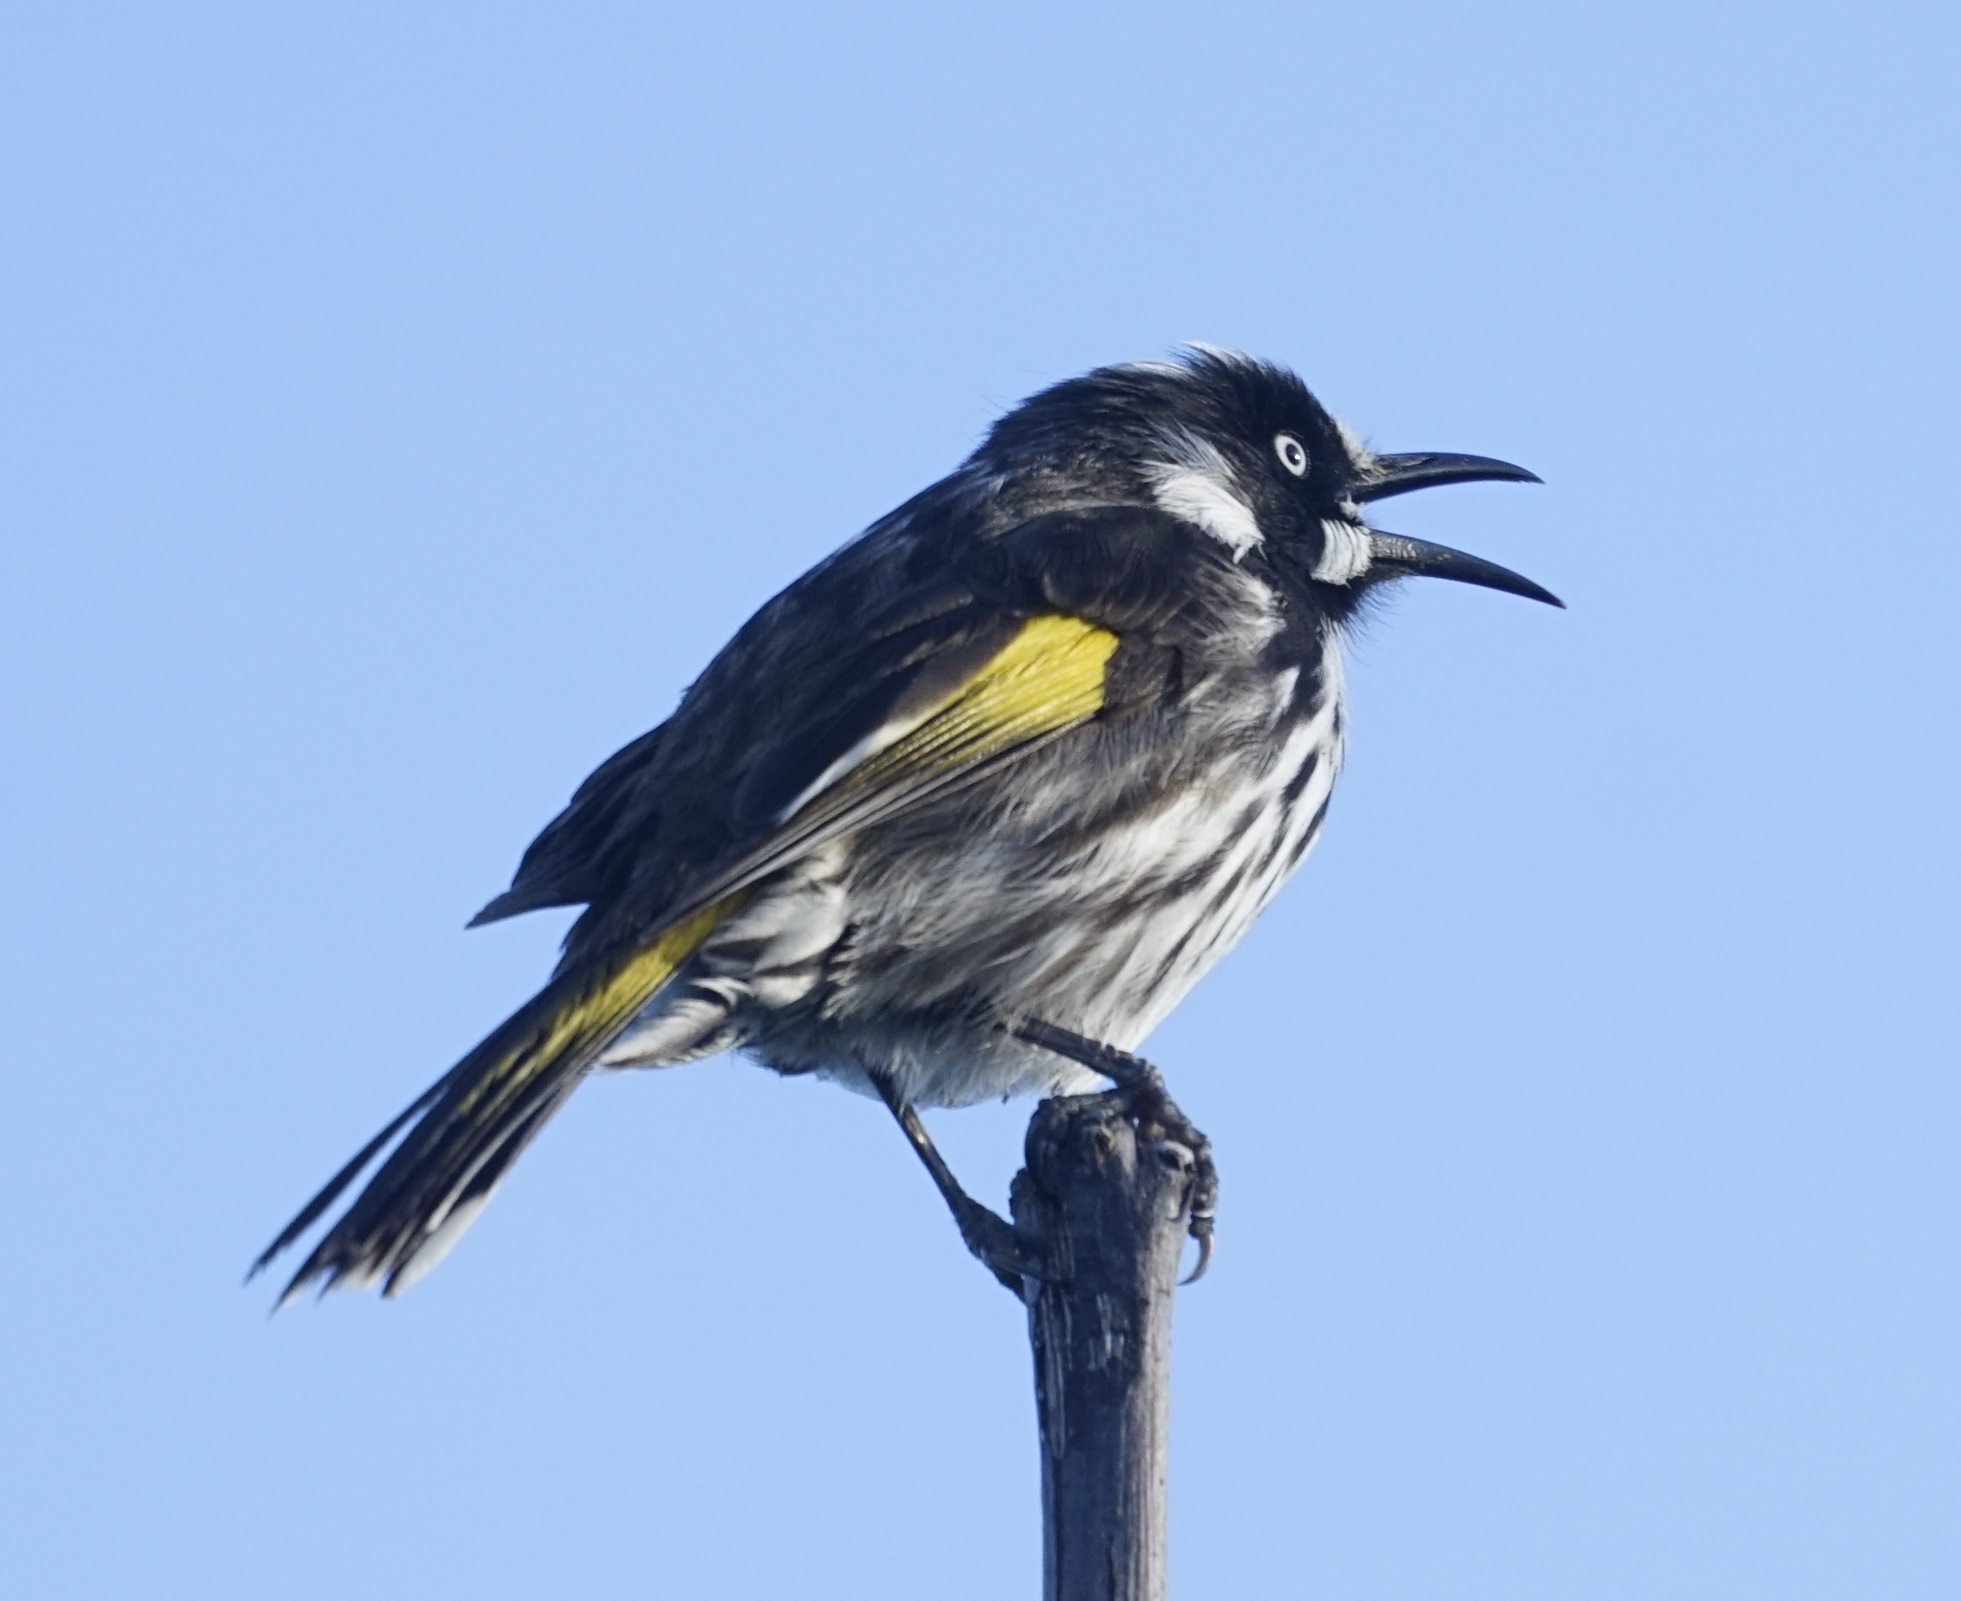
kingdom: Animalia
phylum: Chordata
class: Aves
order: Passeriformes
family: Meliphagidae
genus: Phylidonyris
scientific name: Phylidonyris novaehollandiae
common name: New holland honeyeater
